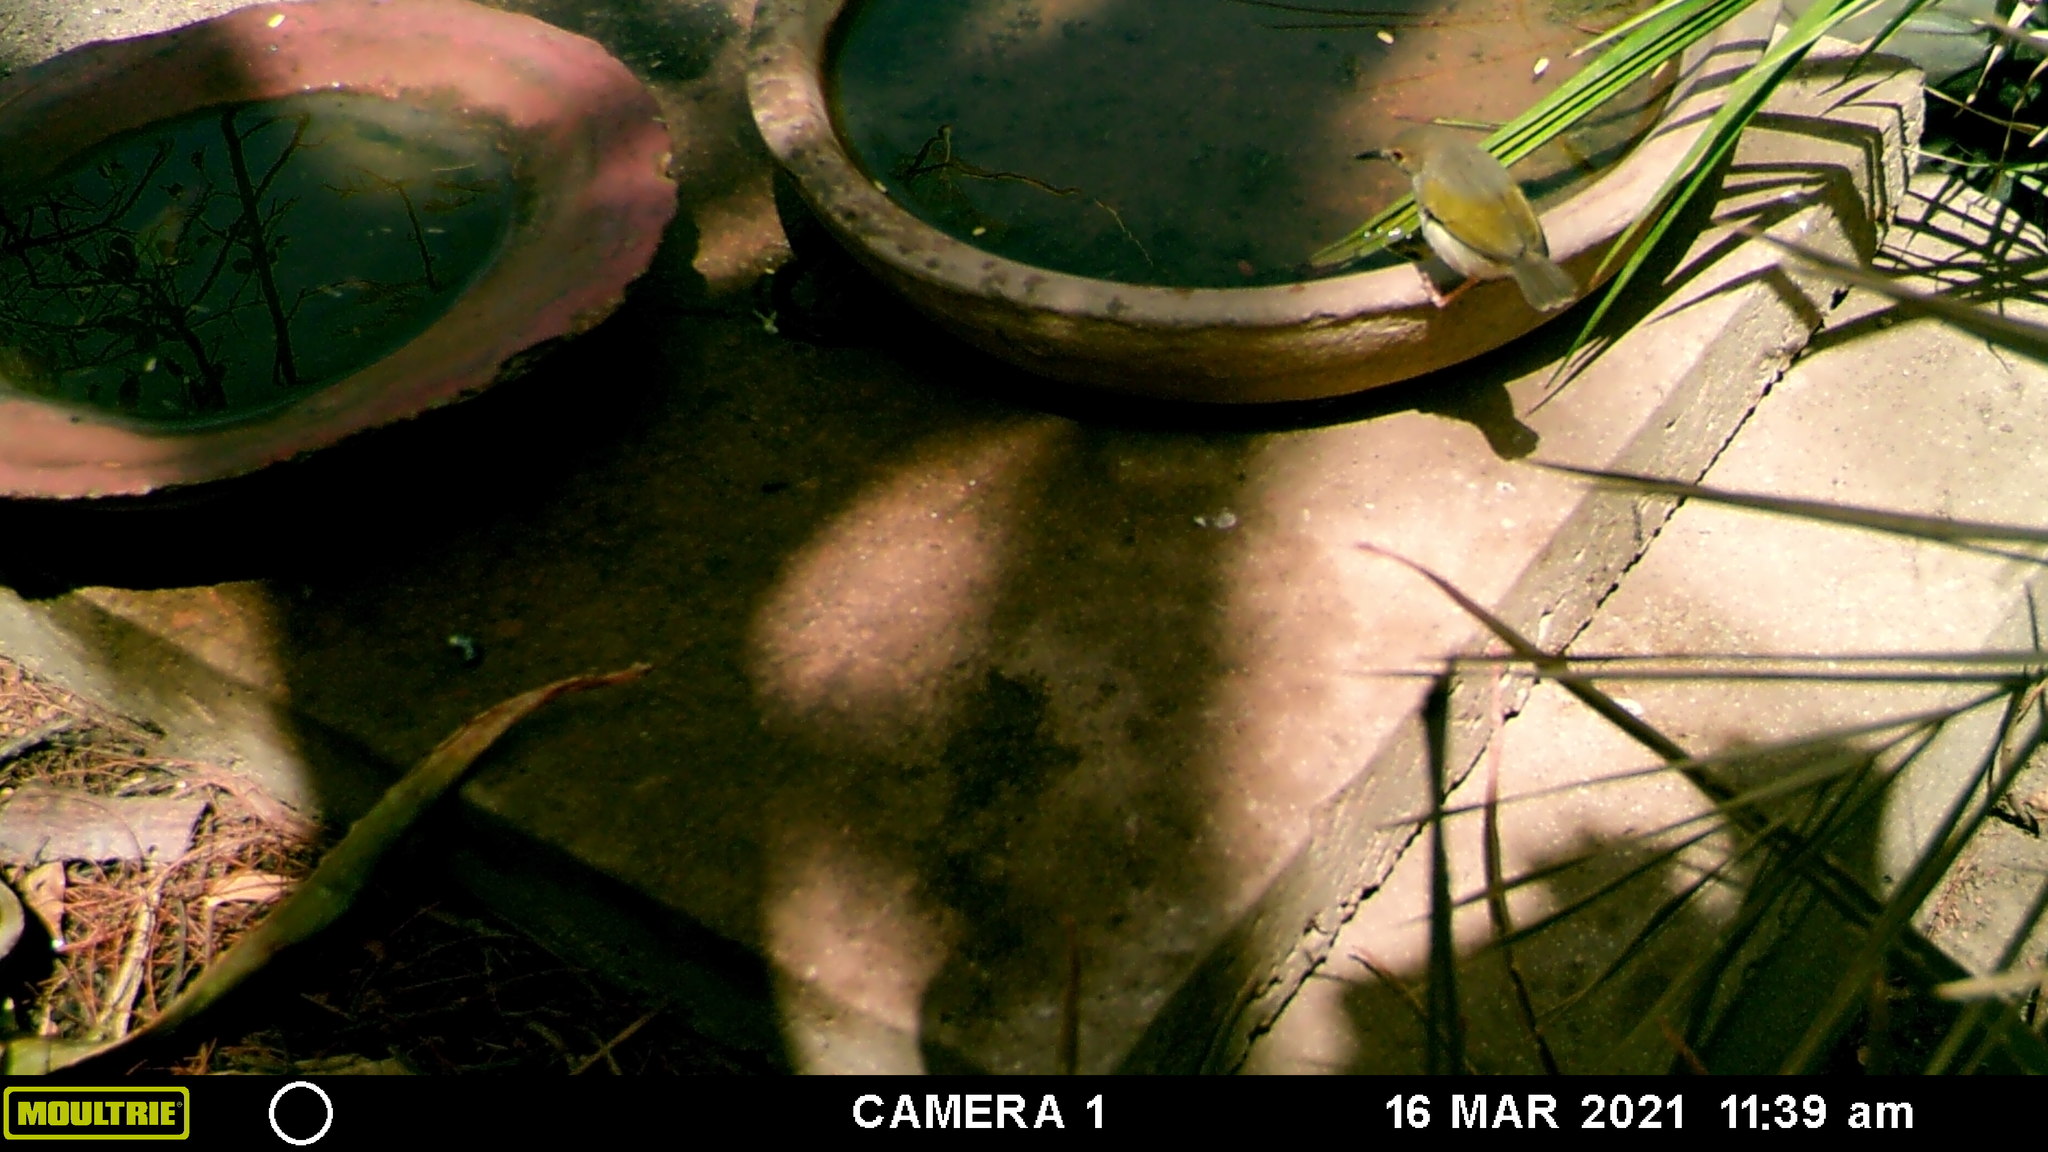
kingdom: Animalia
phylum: Chordata
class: Aves
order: Passeriformes
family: Cisticolidae
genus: Camaroptera
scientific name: Camaroptera brachyura
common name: Green-backed camaroptera
